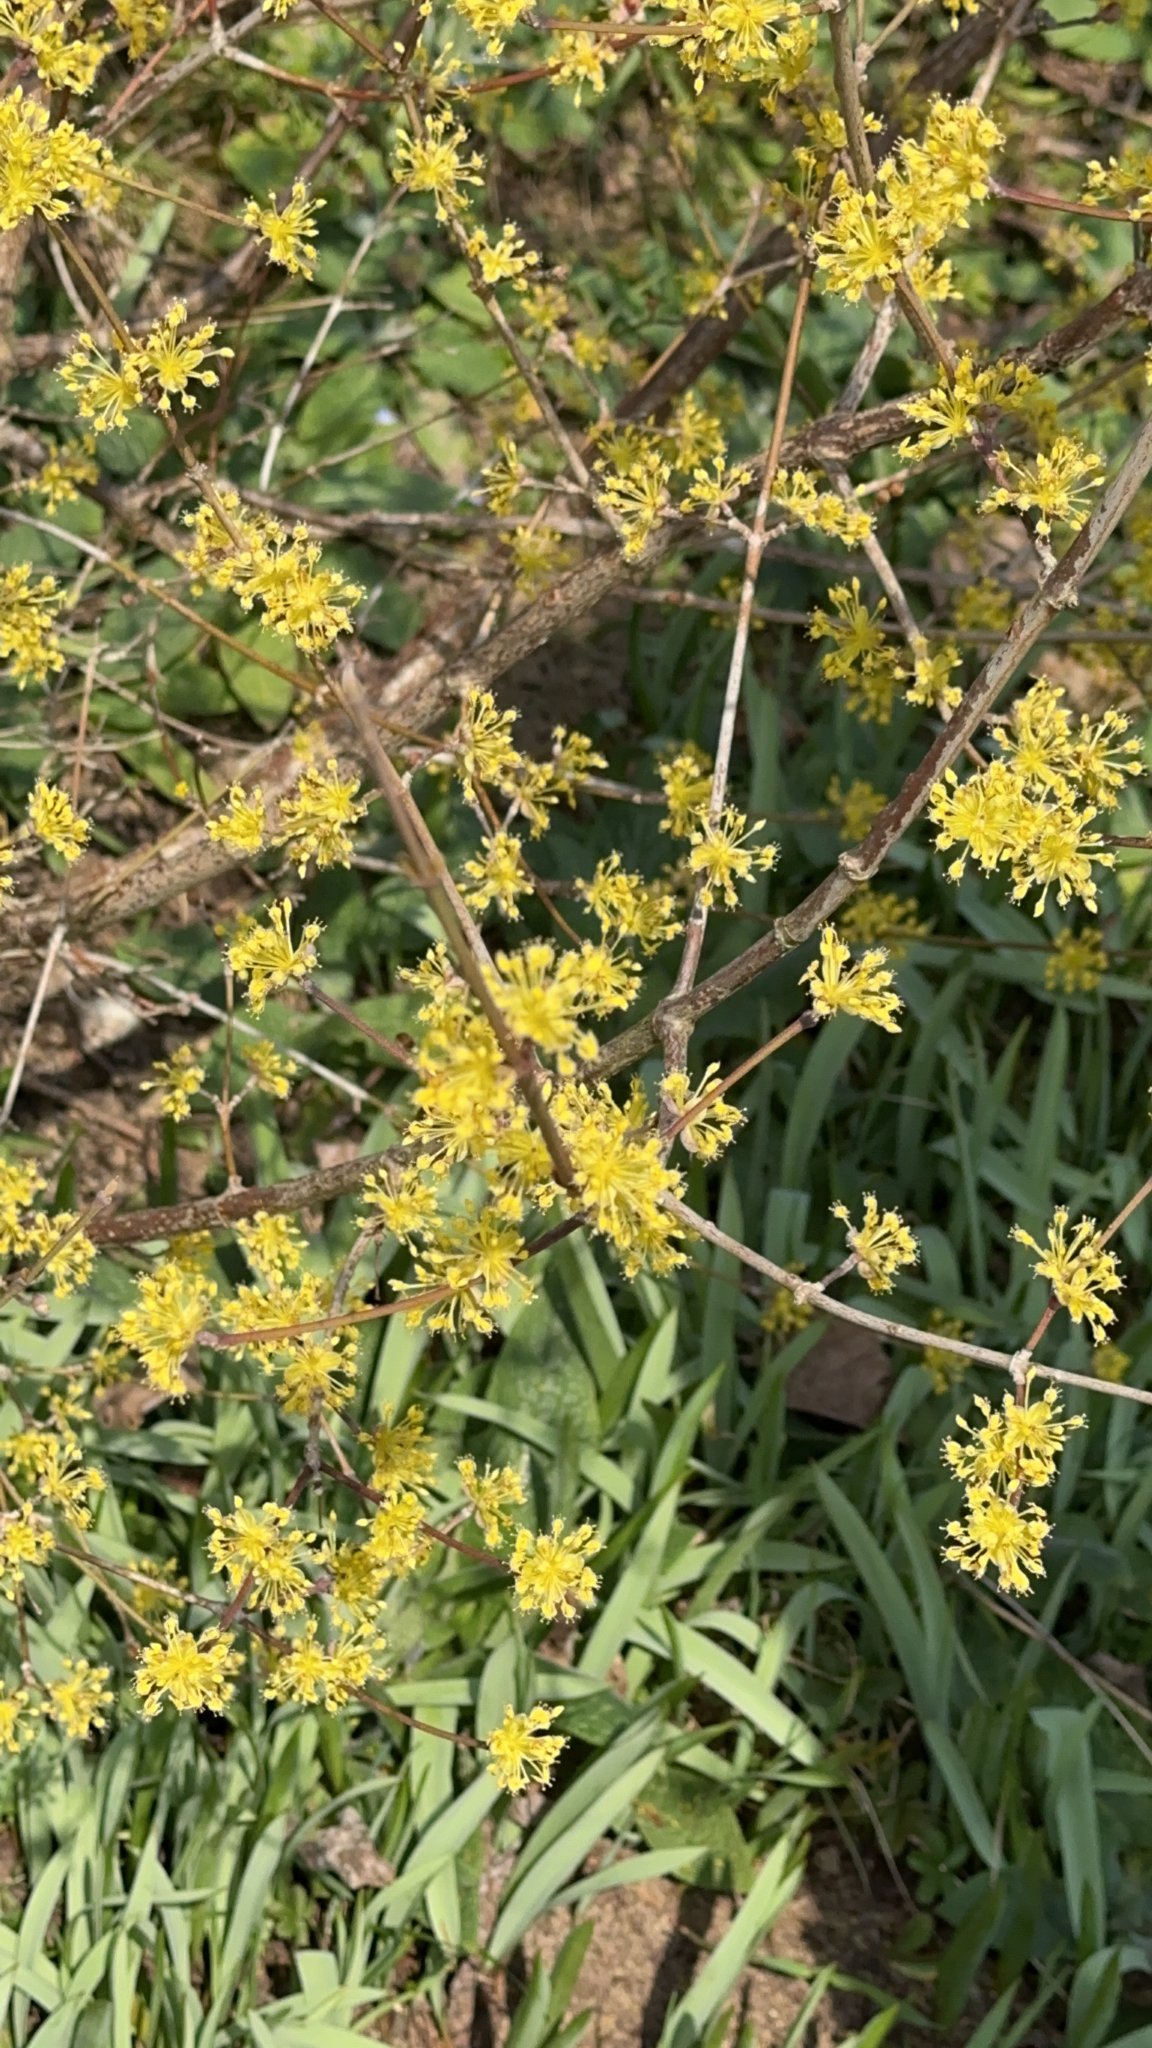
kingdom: Plantae
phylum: Tracheophyta
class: Magnoliopsida
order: Cornales
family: Cornaceae
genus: Cornus
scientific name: Cornus mas
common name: Cornelian-cherry
